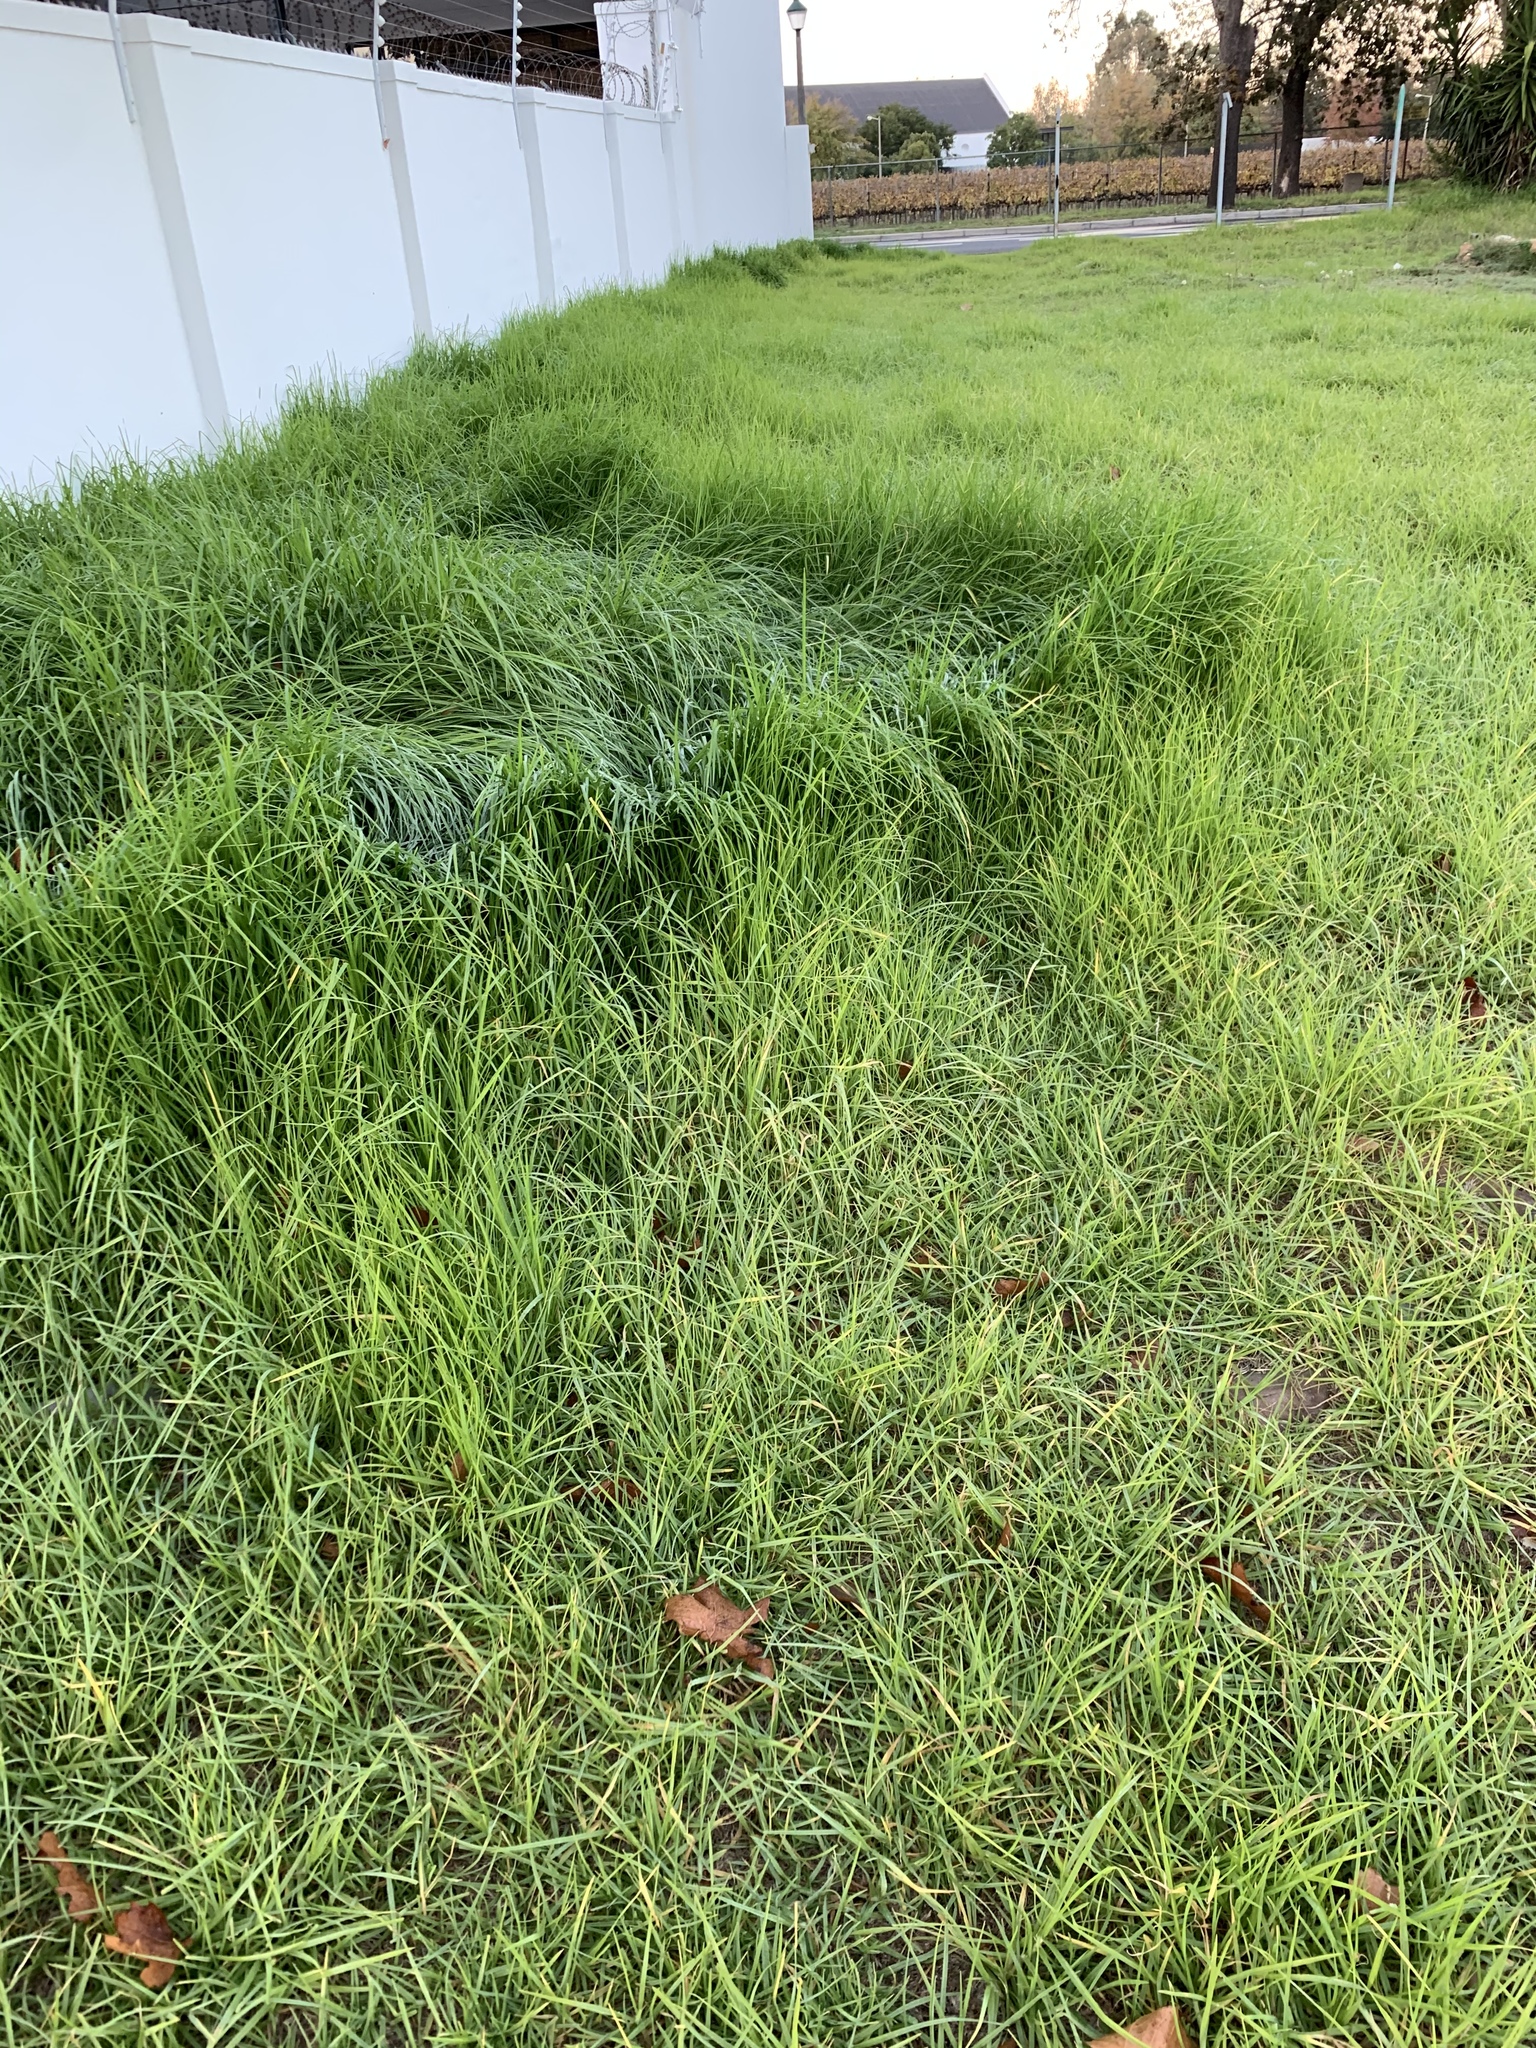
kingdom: Plantae
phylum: Tracheophyta
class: Liliopsida
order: Poales
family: Poaceae
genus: Cenchrus
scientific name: Cenchrus clandestinus
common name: Kikuyugrass
